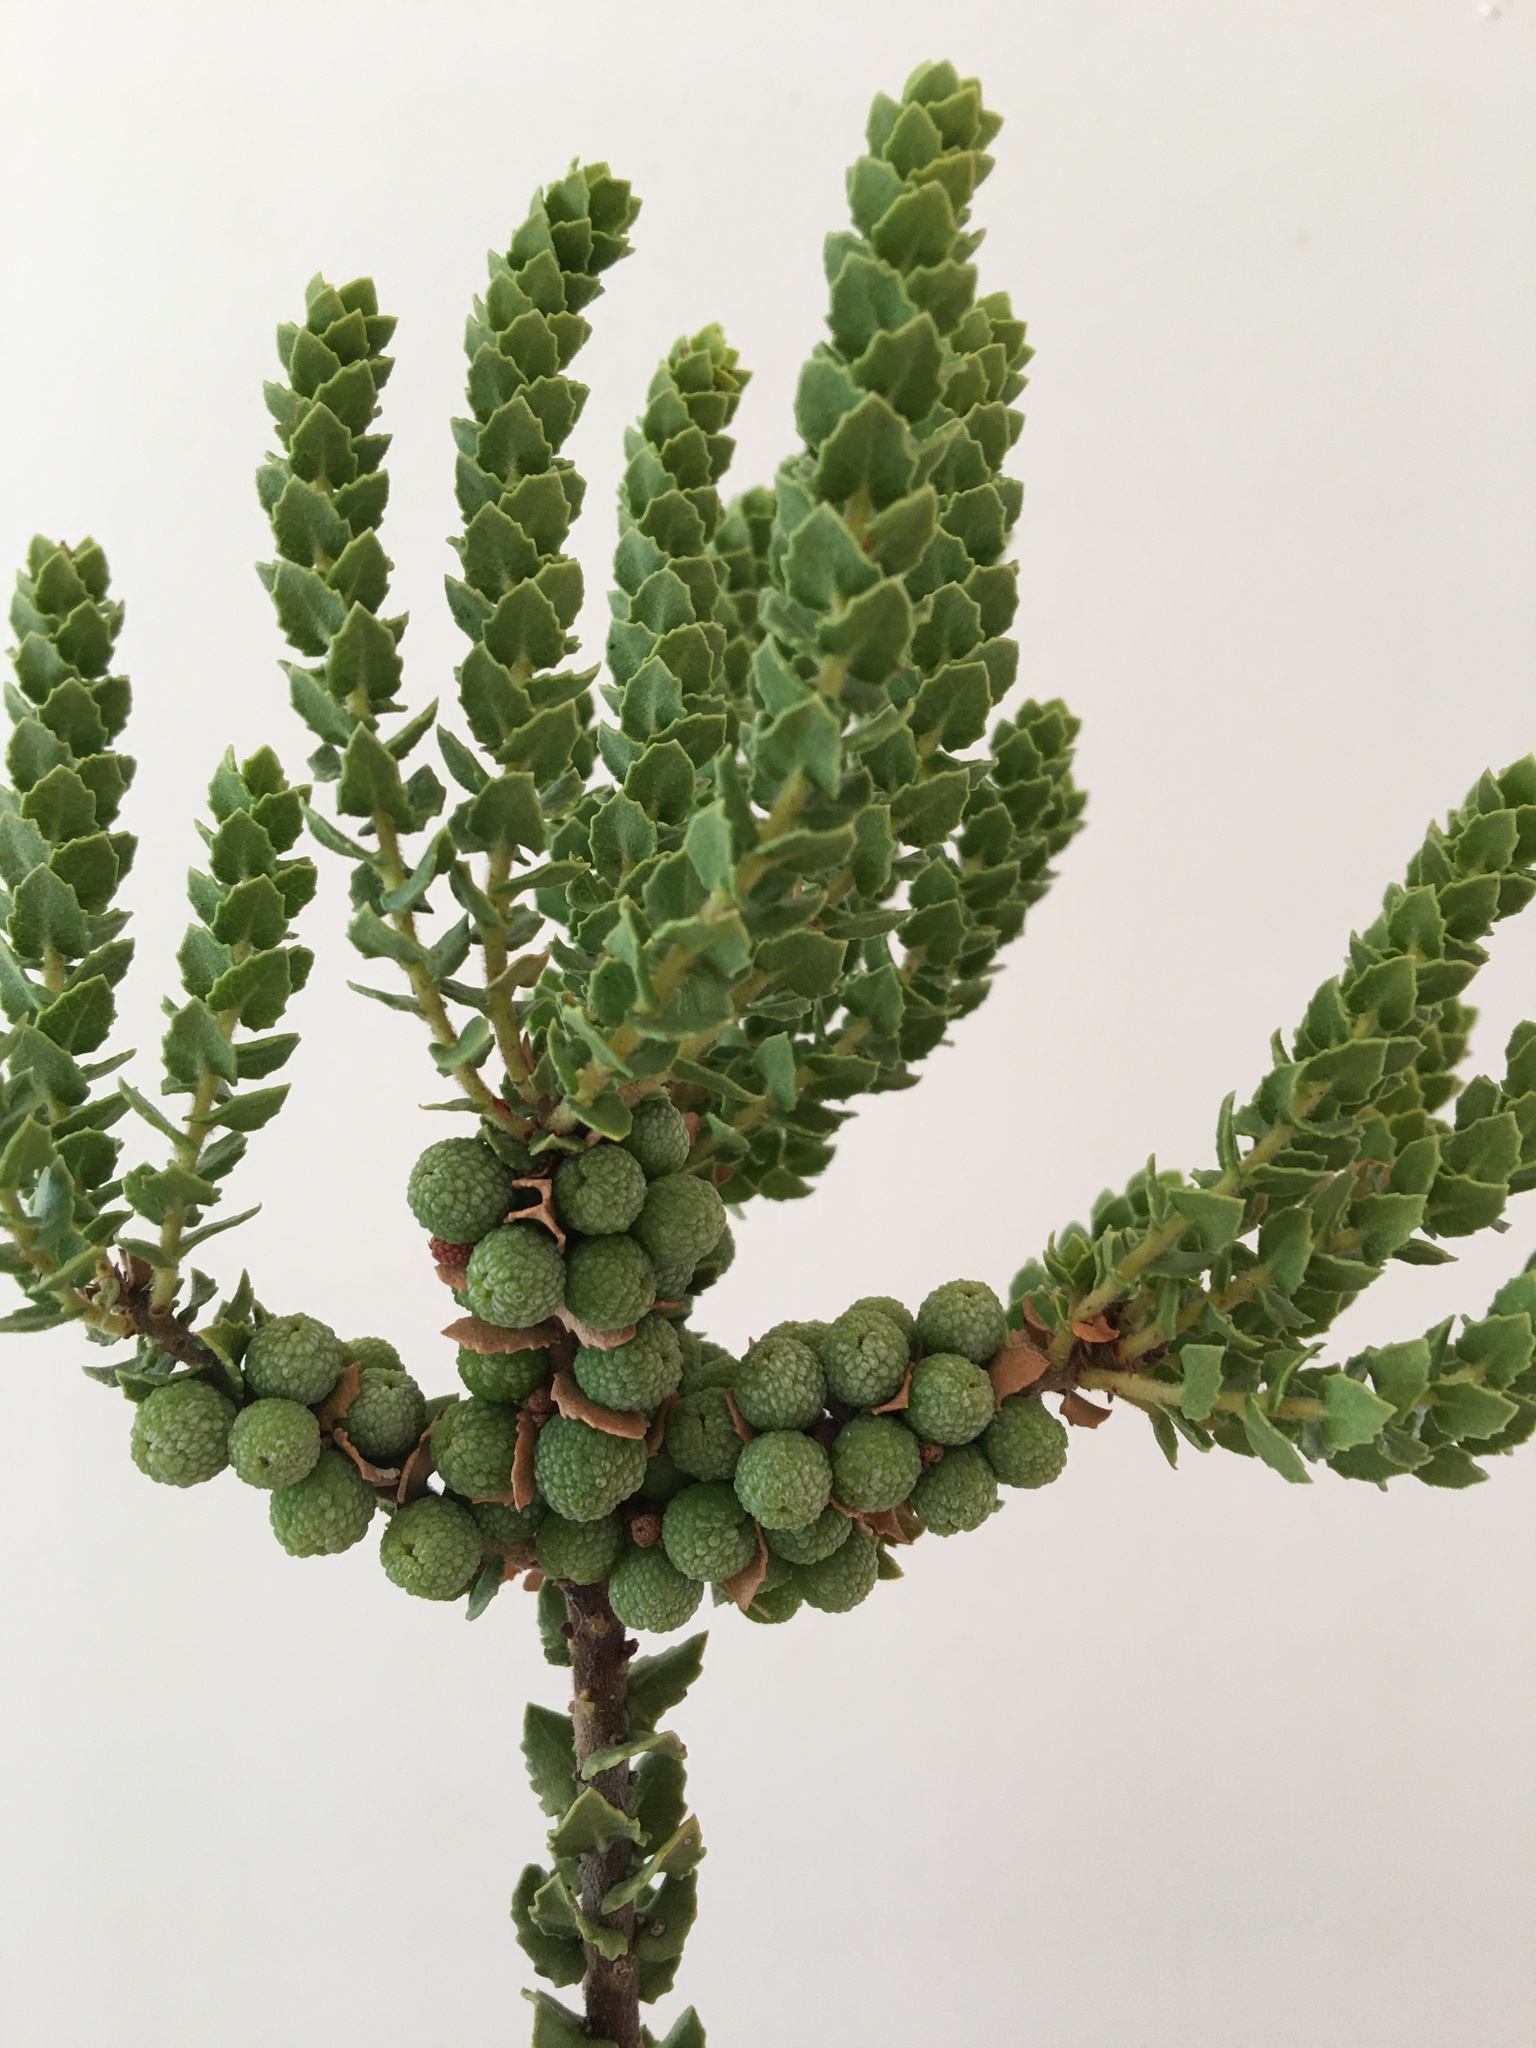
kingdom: Plantae
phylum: Tracheophyta
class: Magnoliopsida
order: Fagales
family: Myricaceae
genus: Morella
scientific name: Morella cordifolia
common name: Waxberry
